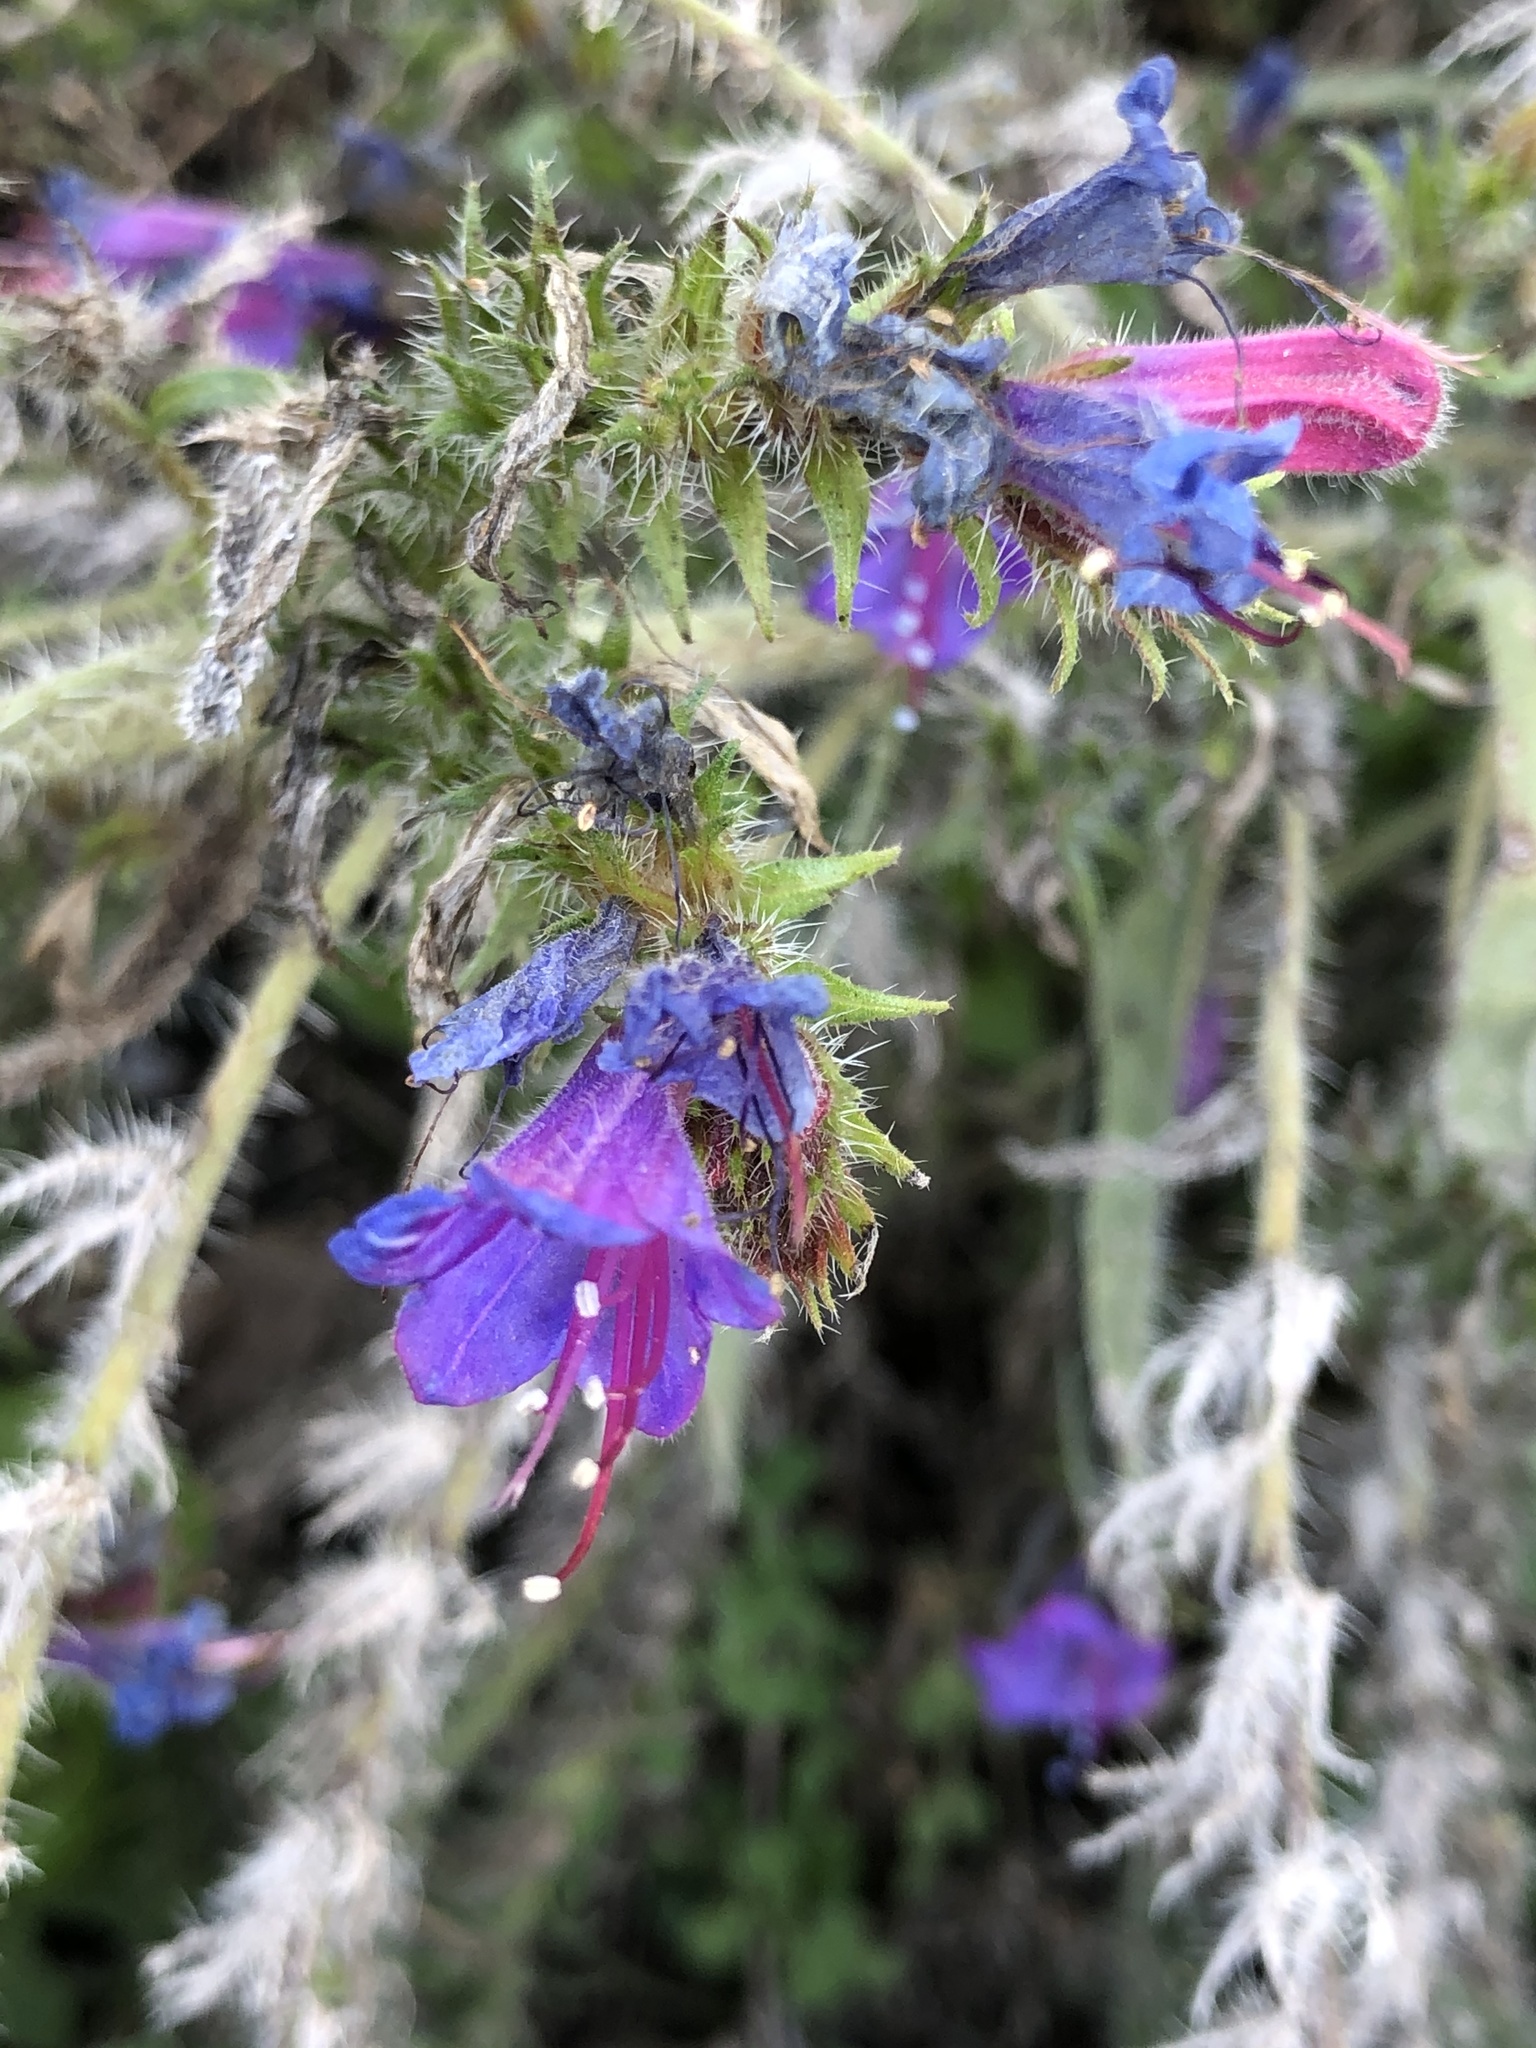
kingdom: Plantae
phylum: Tracheophyta
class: Magnoliopsida
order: Boraginales
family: Boraginaceae
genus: Echium
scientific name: Echium vulgare
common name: Common viper's bugloss
